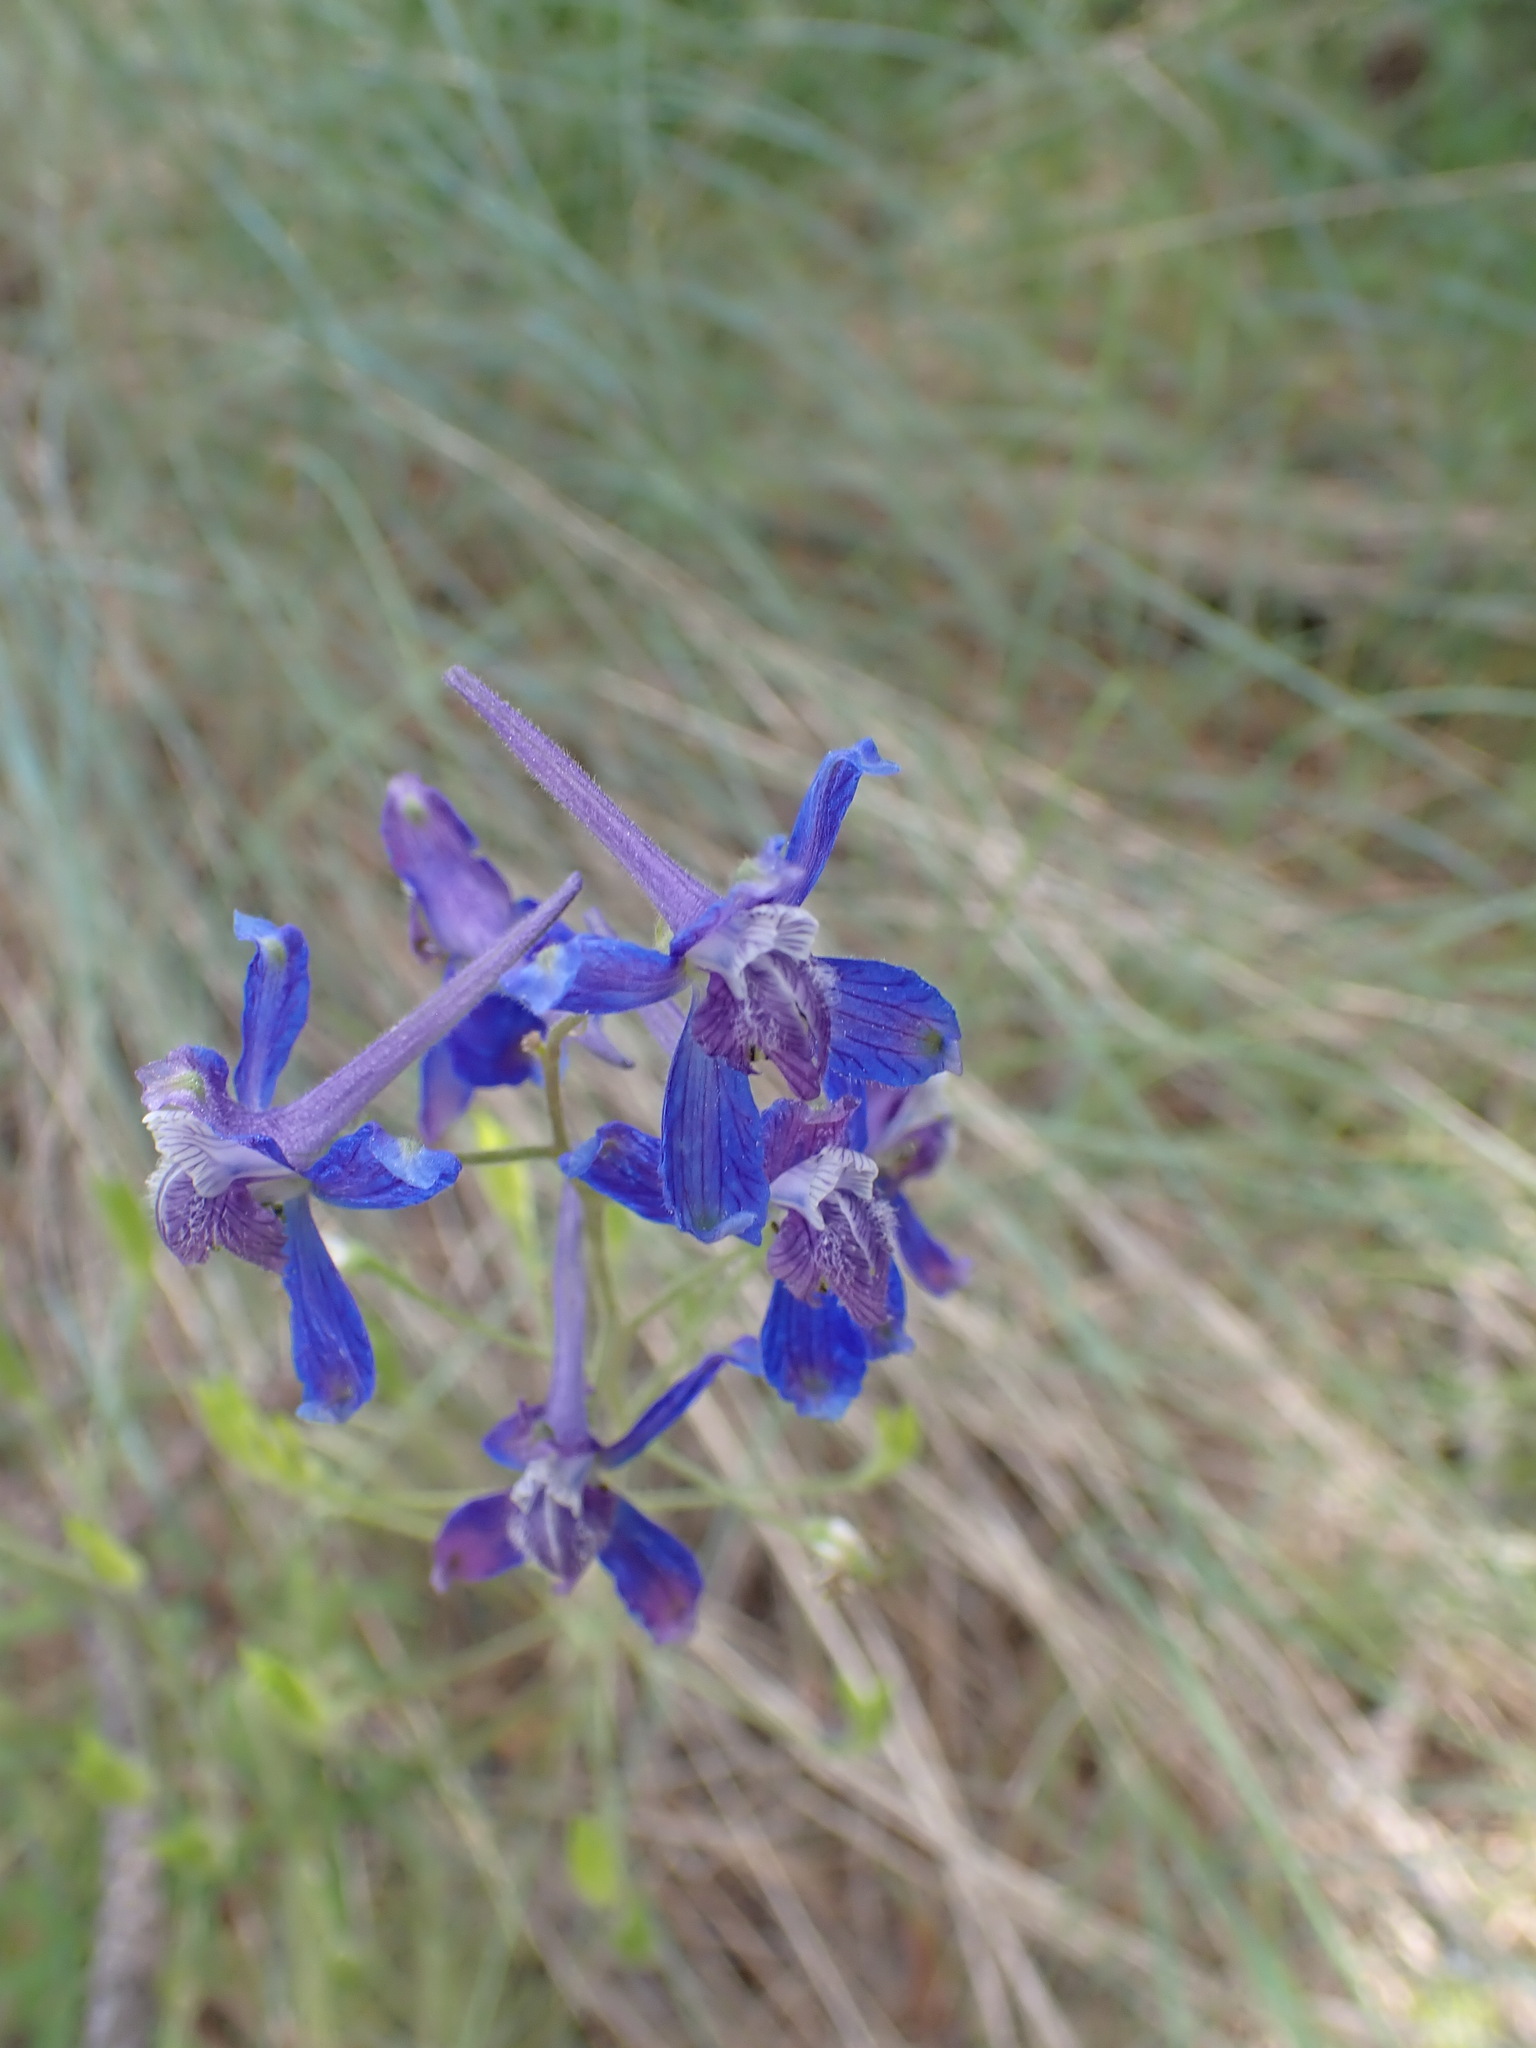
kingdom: Plantae
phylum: Tracheophyta
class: Magnoliopsida
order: Ranunculales
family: Ranunculaceae
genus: Delphinium
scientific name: Delphinium nuttallianum
